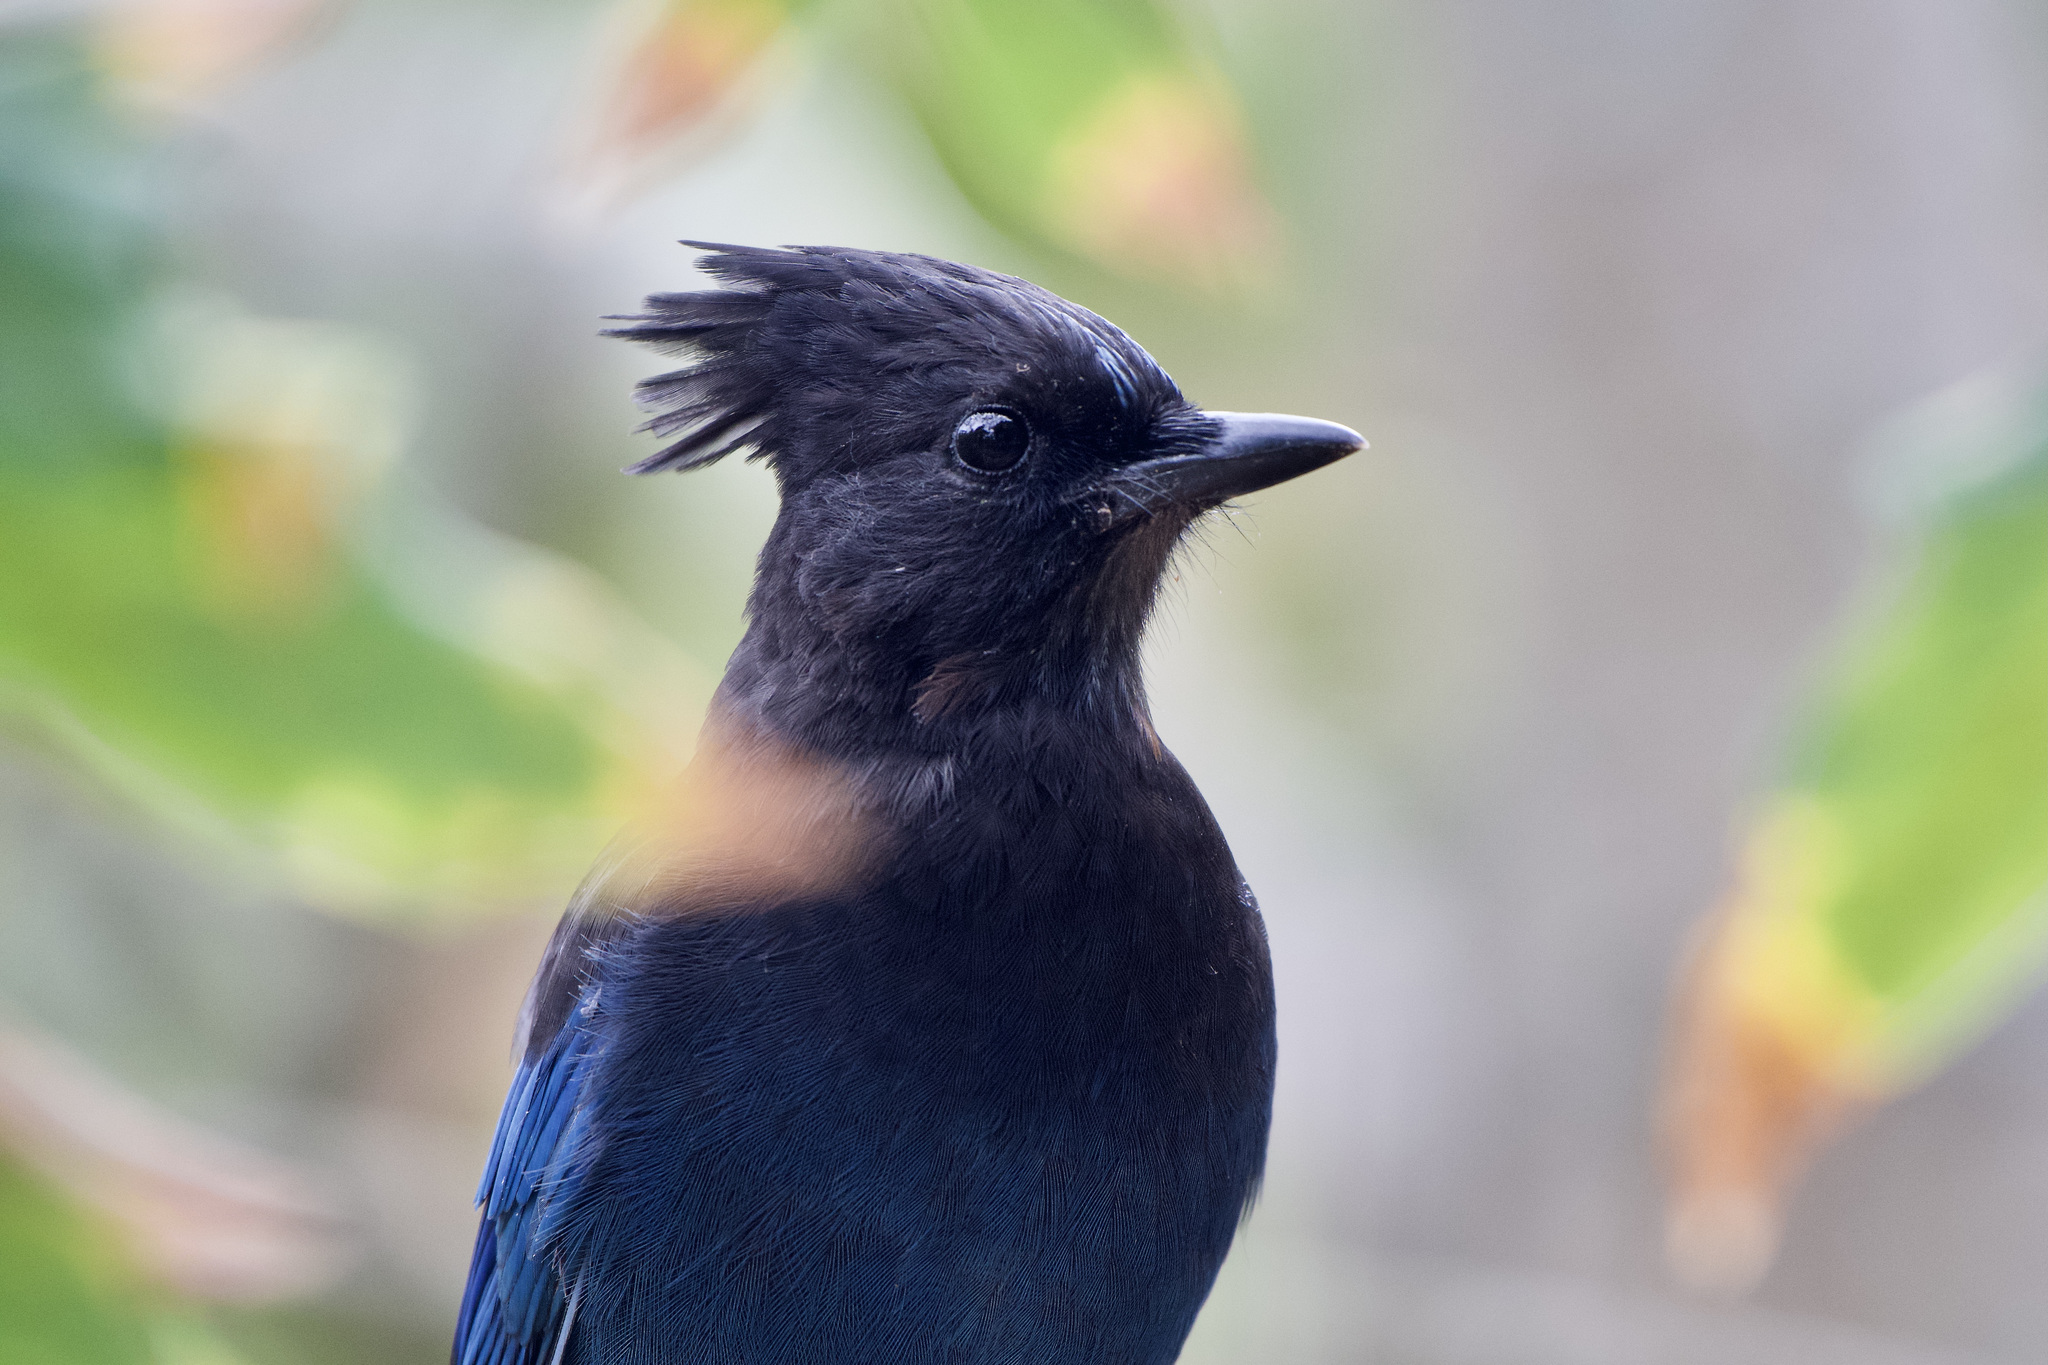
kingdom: Animalia
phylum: Chordata
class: Aves
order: Passeriformes
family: Corvidae
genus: Cyanocitta
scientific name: Cyanocitta stelleri
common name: Steller's jay
